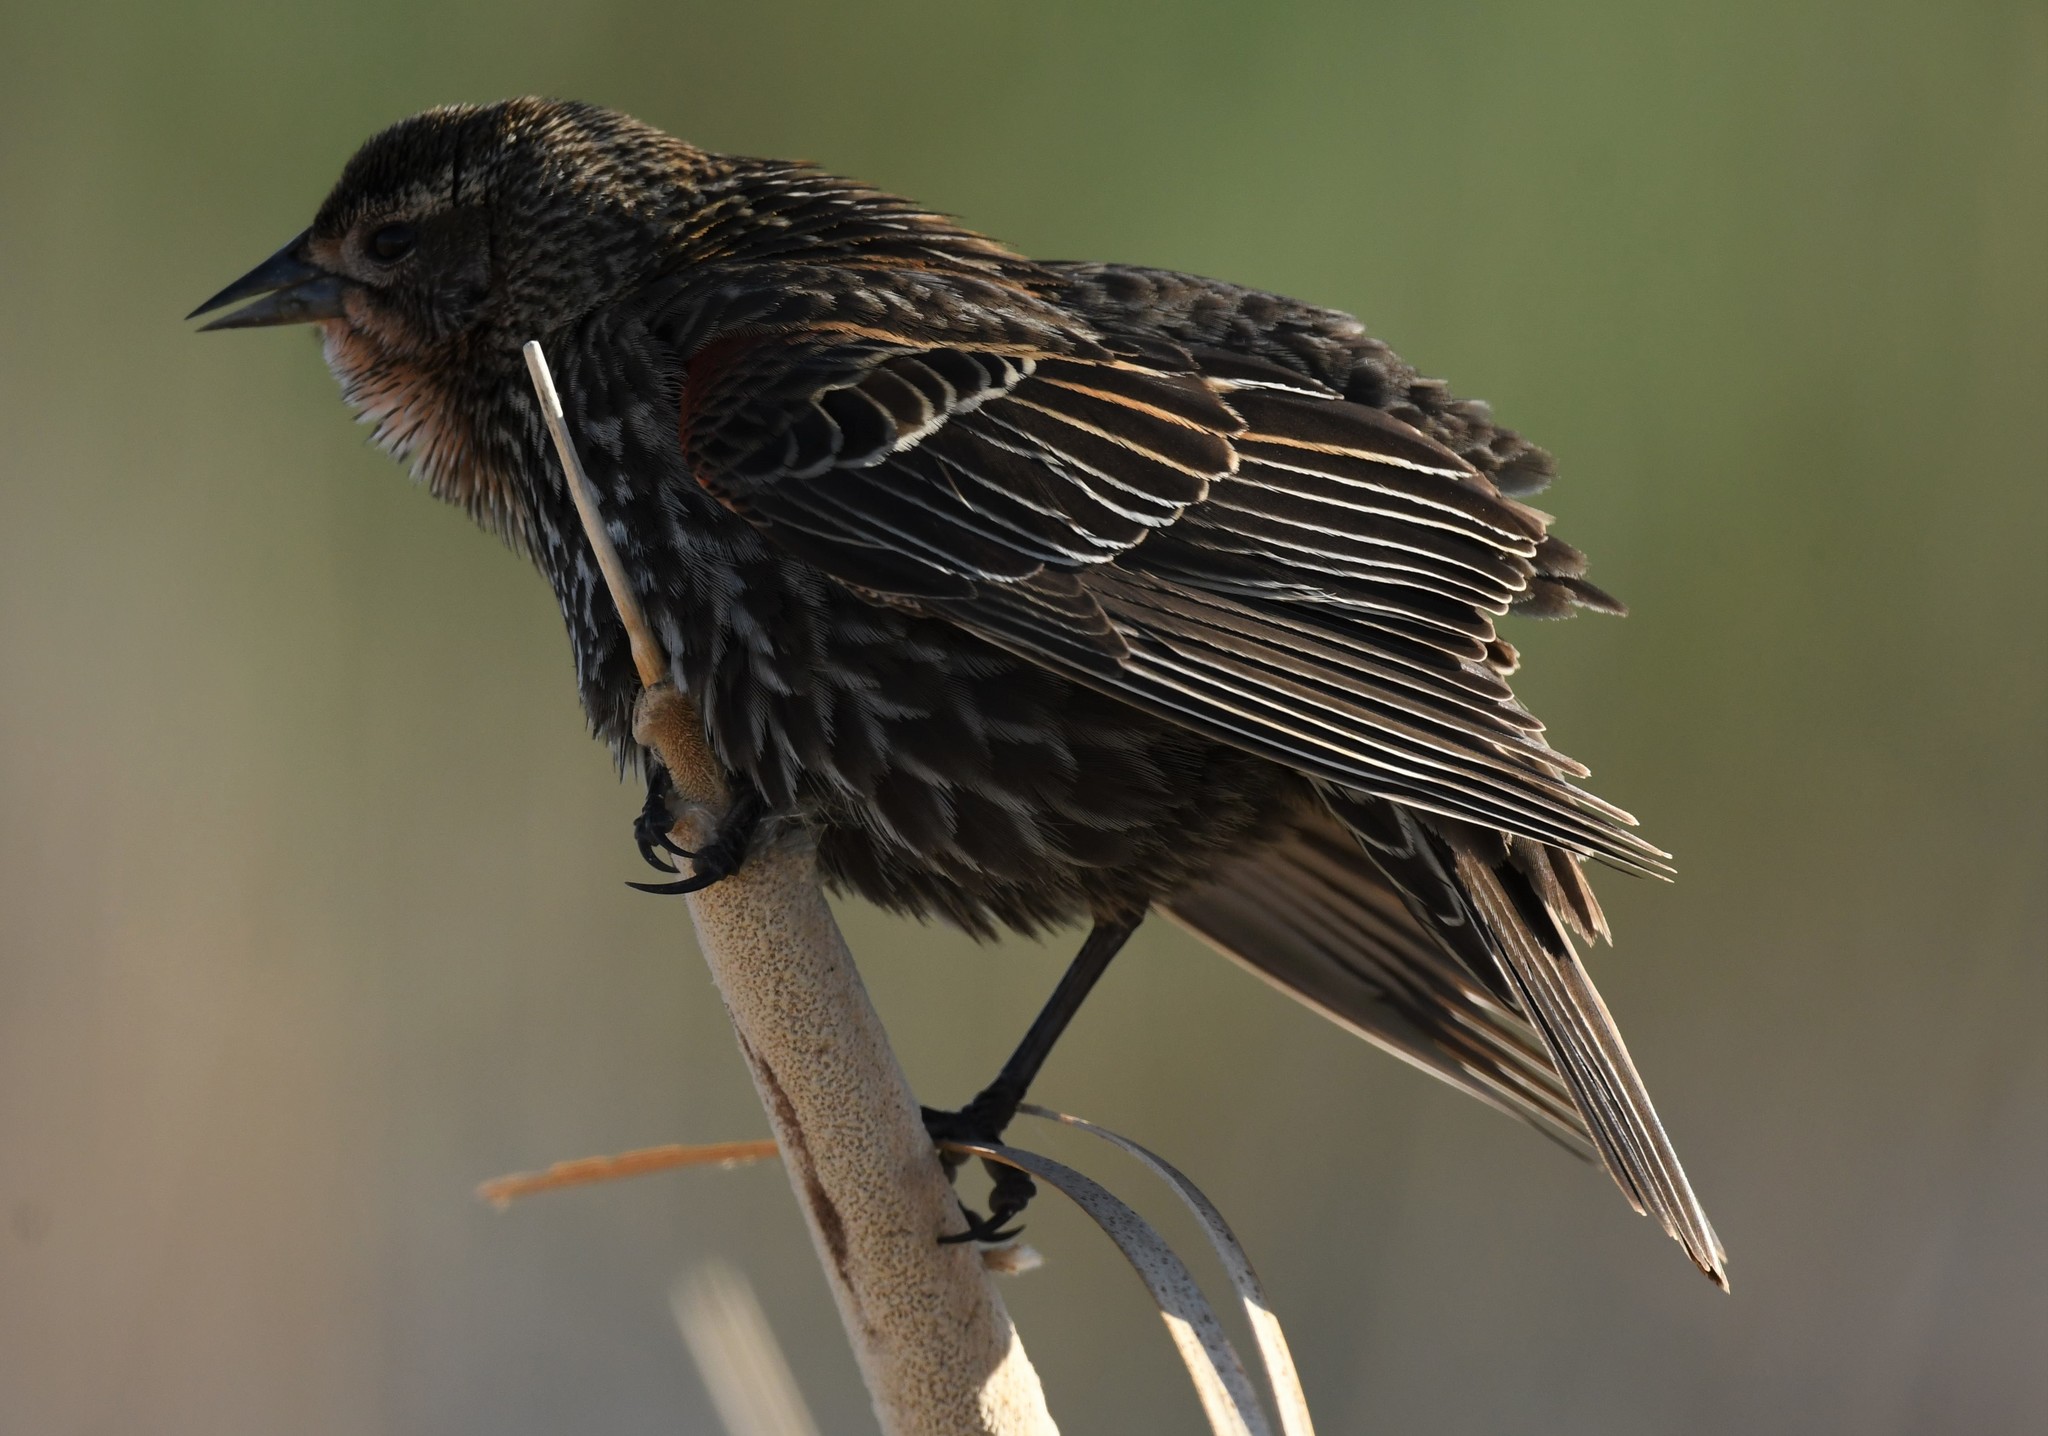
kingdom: Animalia
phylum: Chordata
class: Aves
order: Passeriformes
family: Icteridae
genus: Agelaius
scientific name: Agelaius phoeniceus
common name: Red-winged blackbird
